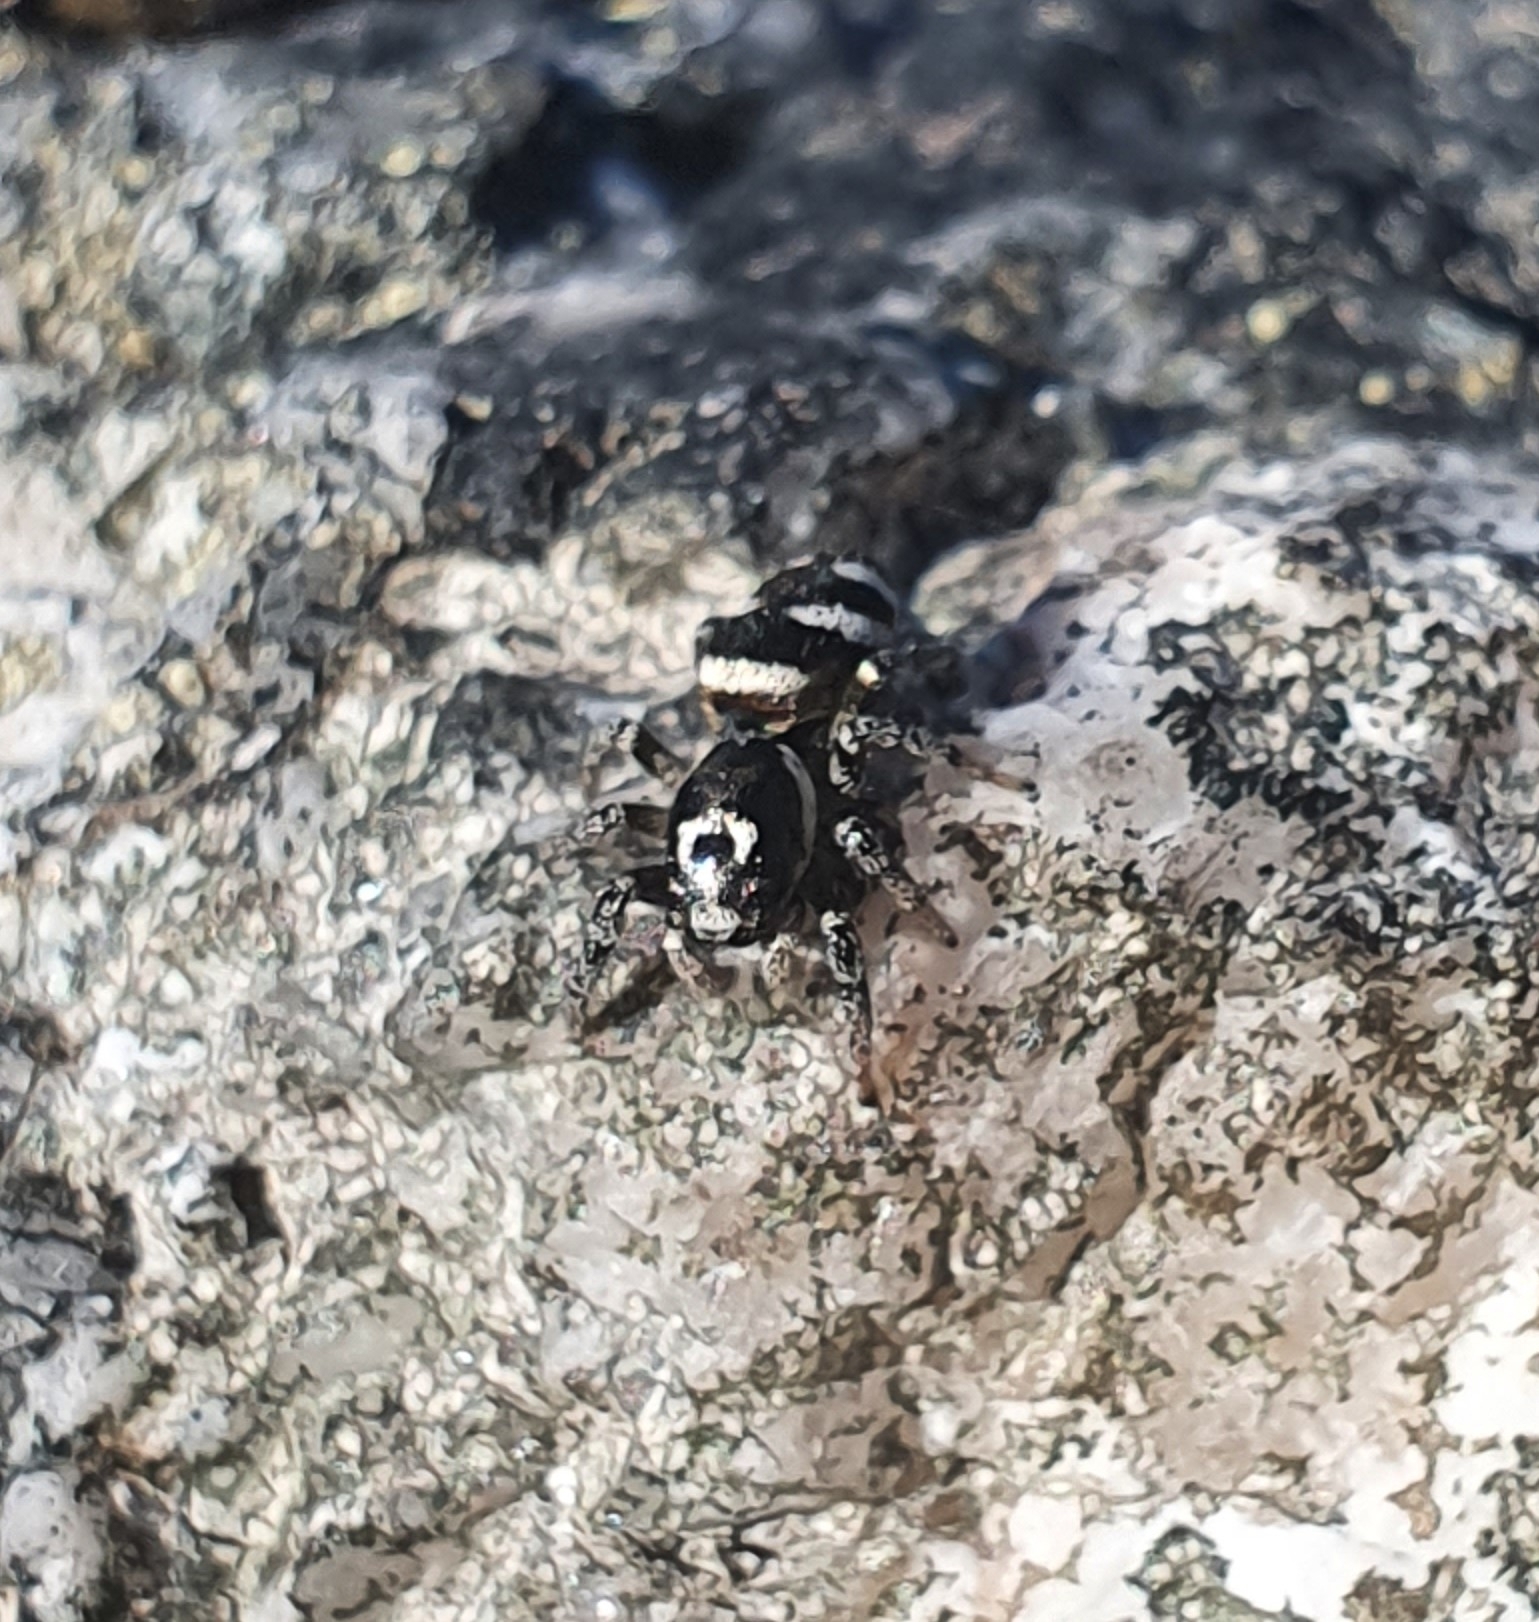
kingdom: Animalia
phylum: Arthropoda
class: Arachnida
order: Araneae
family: Salticidae
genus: Salticus
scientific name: Salticus scenicus
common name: Zebra jumper
